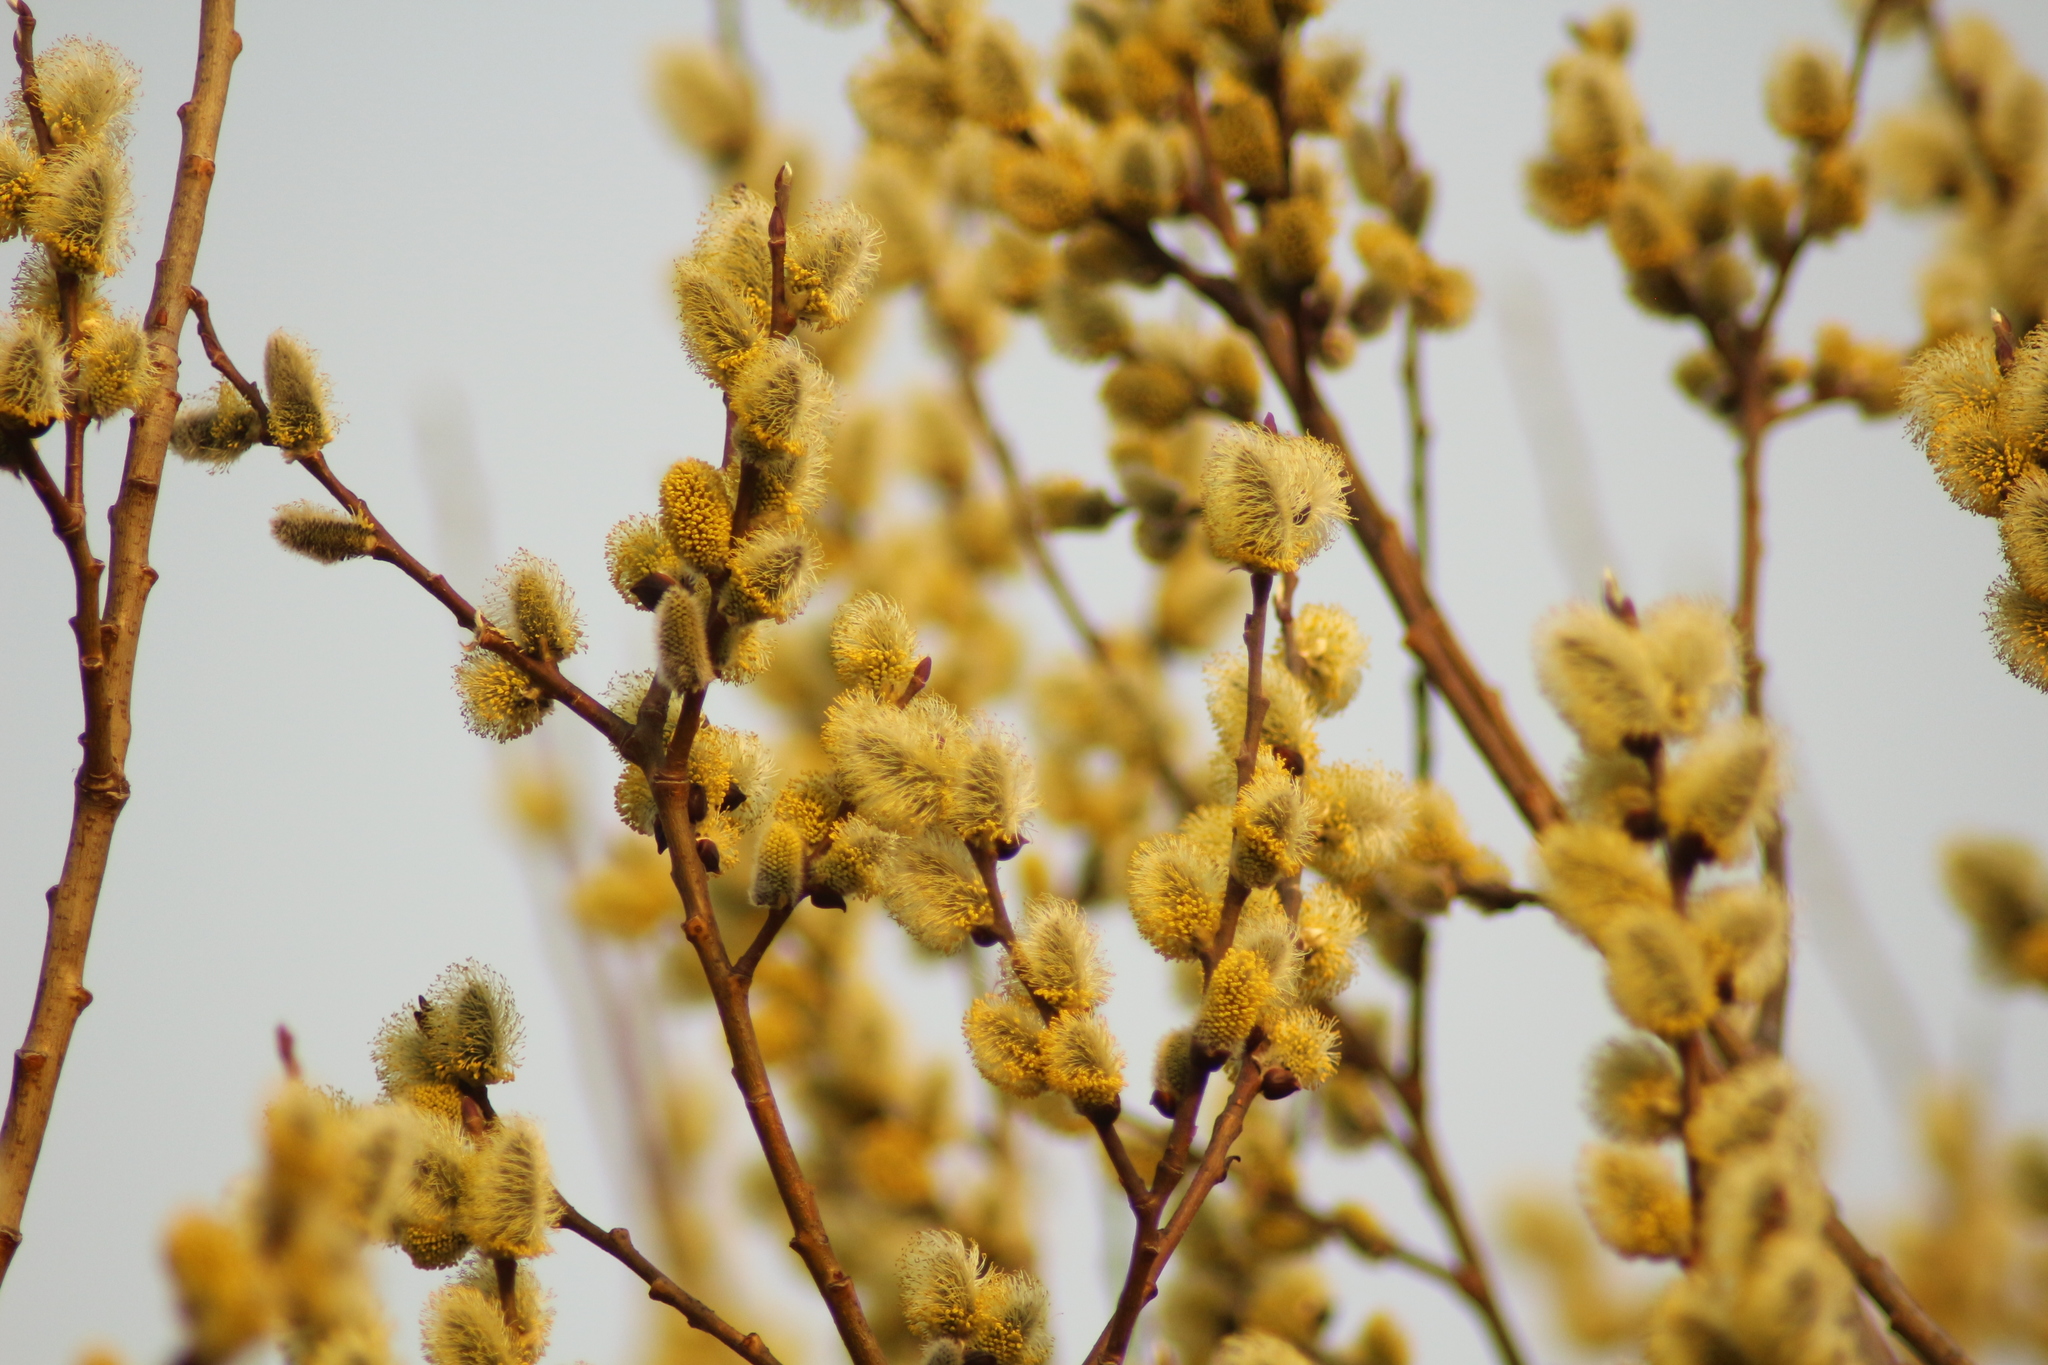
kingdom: Plantae
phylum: Tracheophyta
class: Magnoliopsida
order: Malpighiales
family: Salicaceae
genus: Salix
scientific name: Salix caprea
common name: Goat willow
